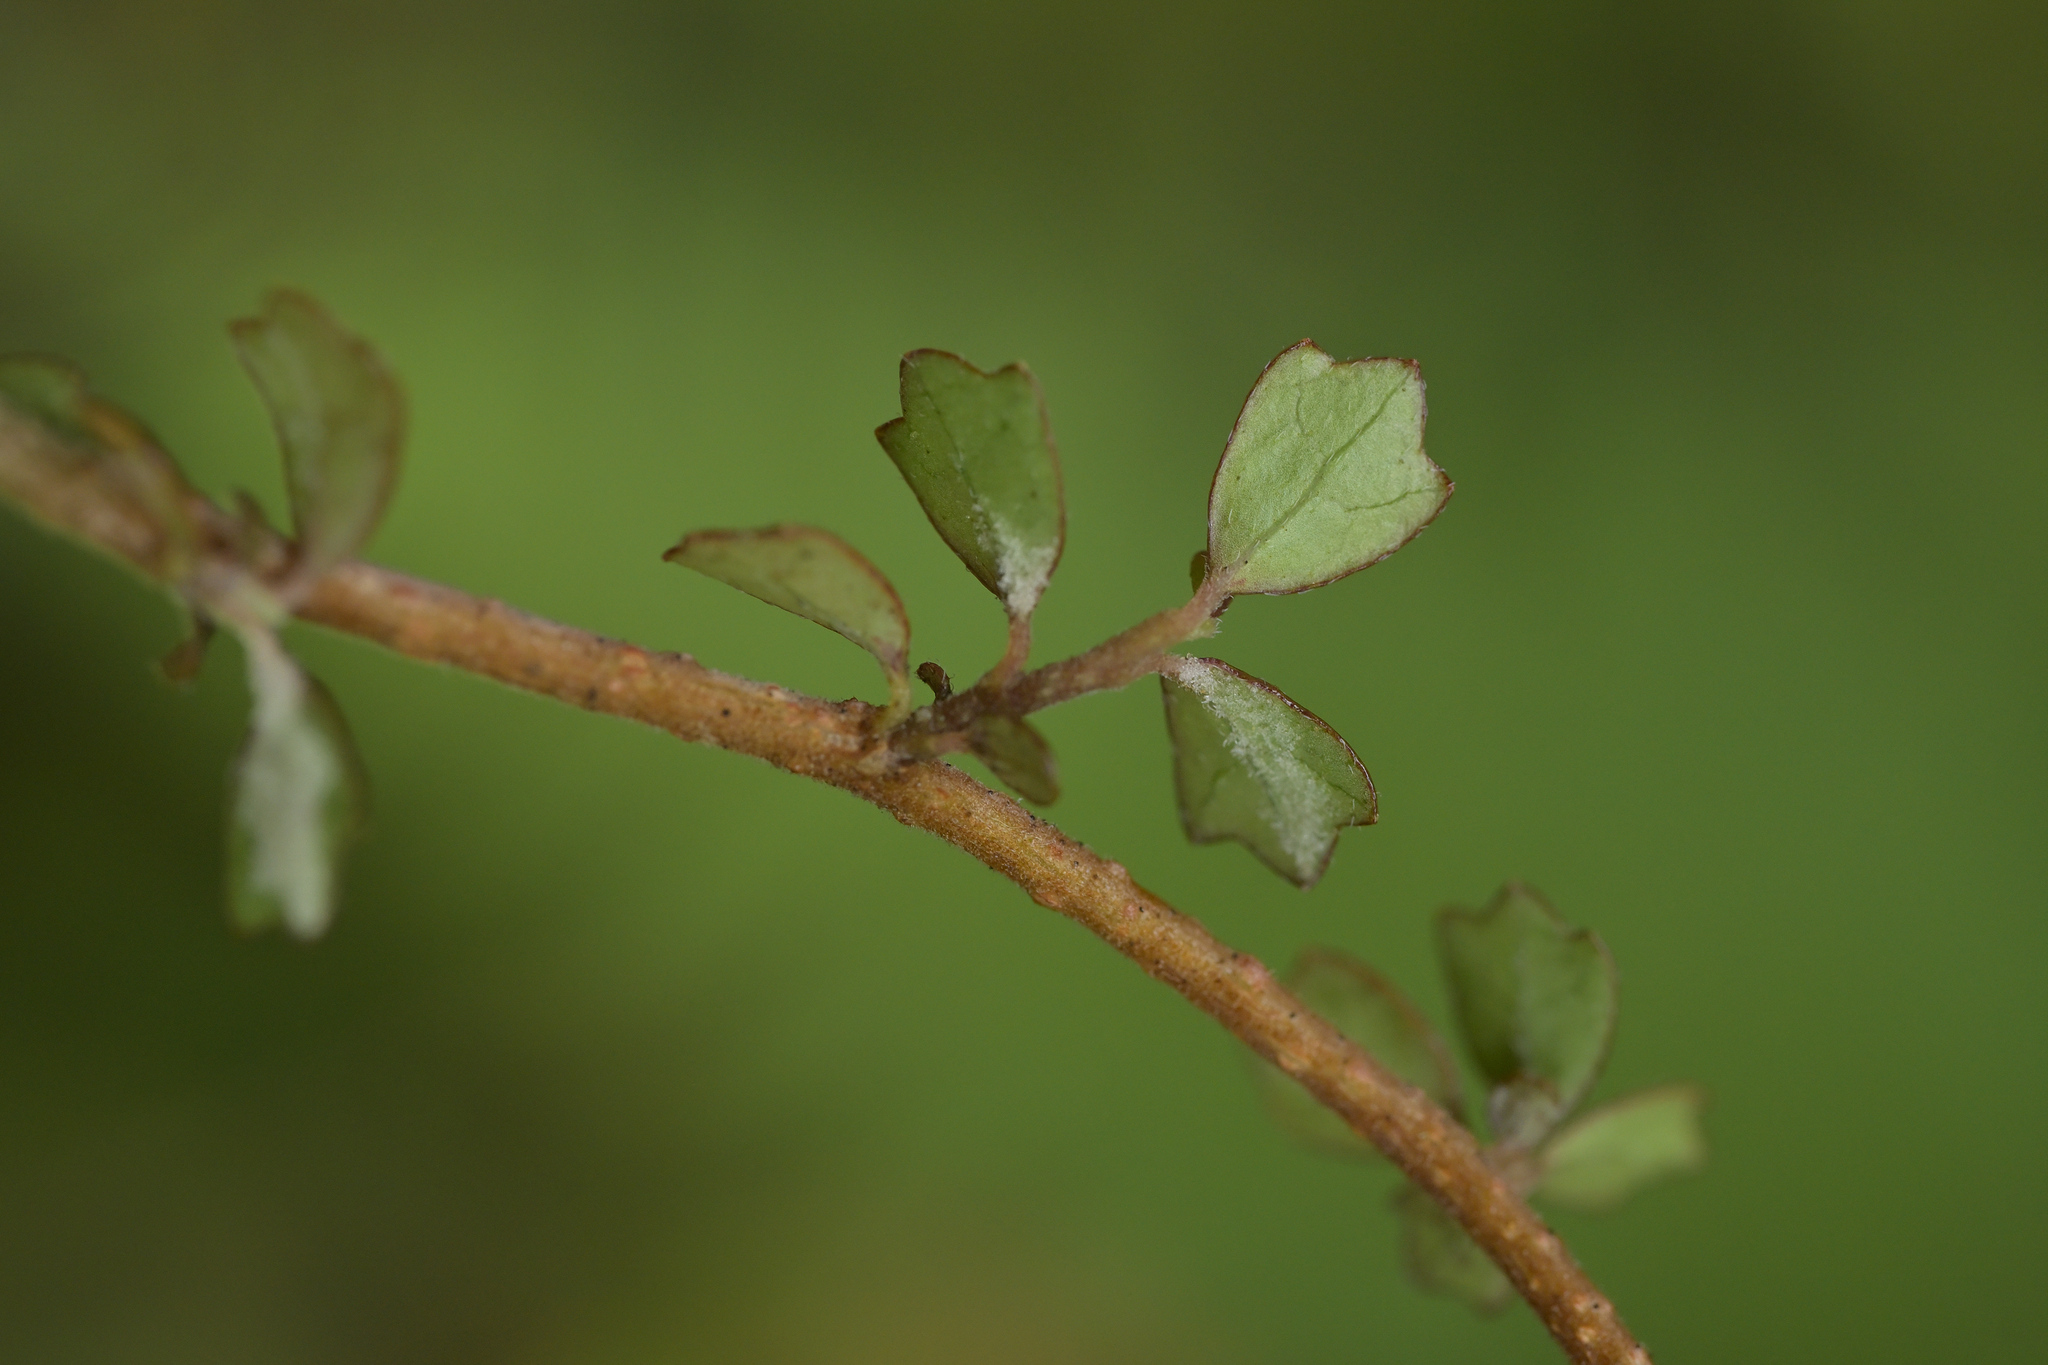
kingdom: Plantae
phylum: Tracheophyta
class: Magnoliopsida
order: Apiales
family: Pennantiaceae
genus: Pennantia
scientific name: Pennantia corymbosa
